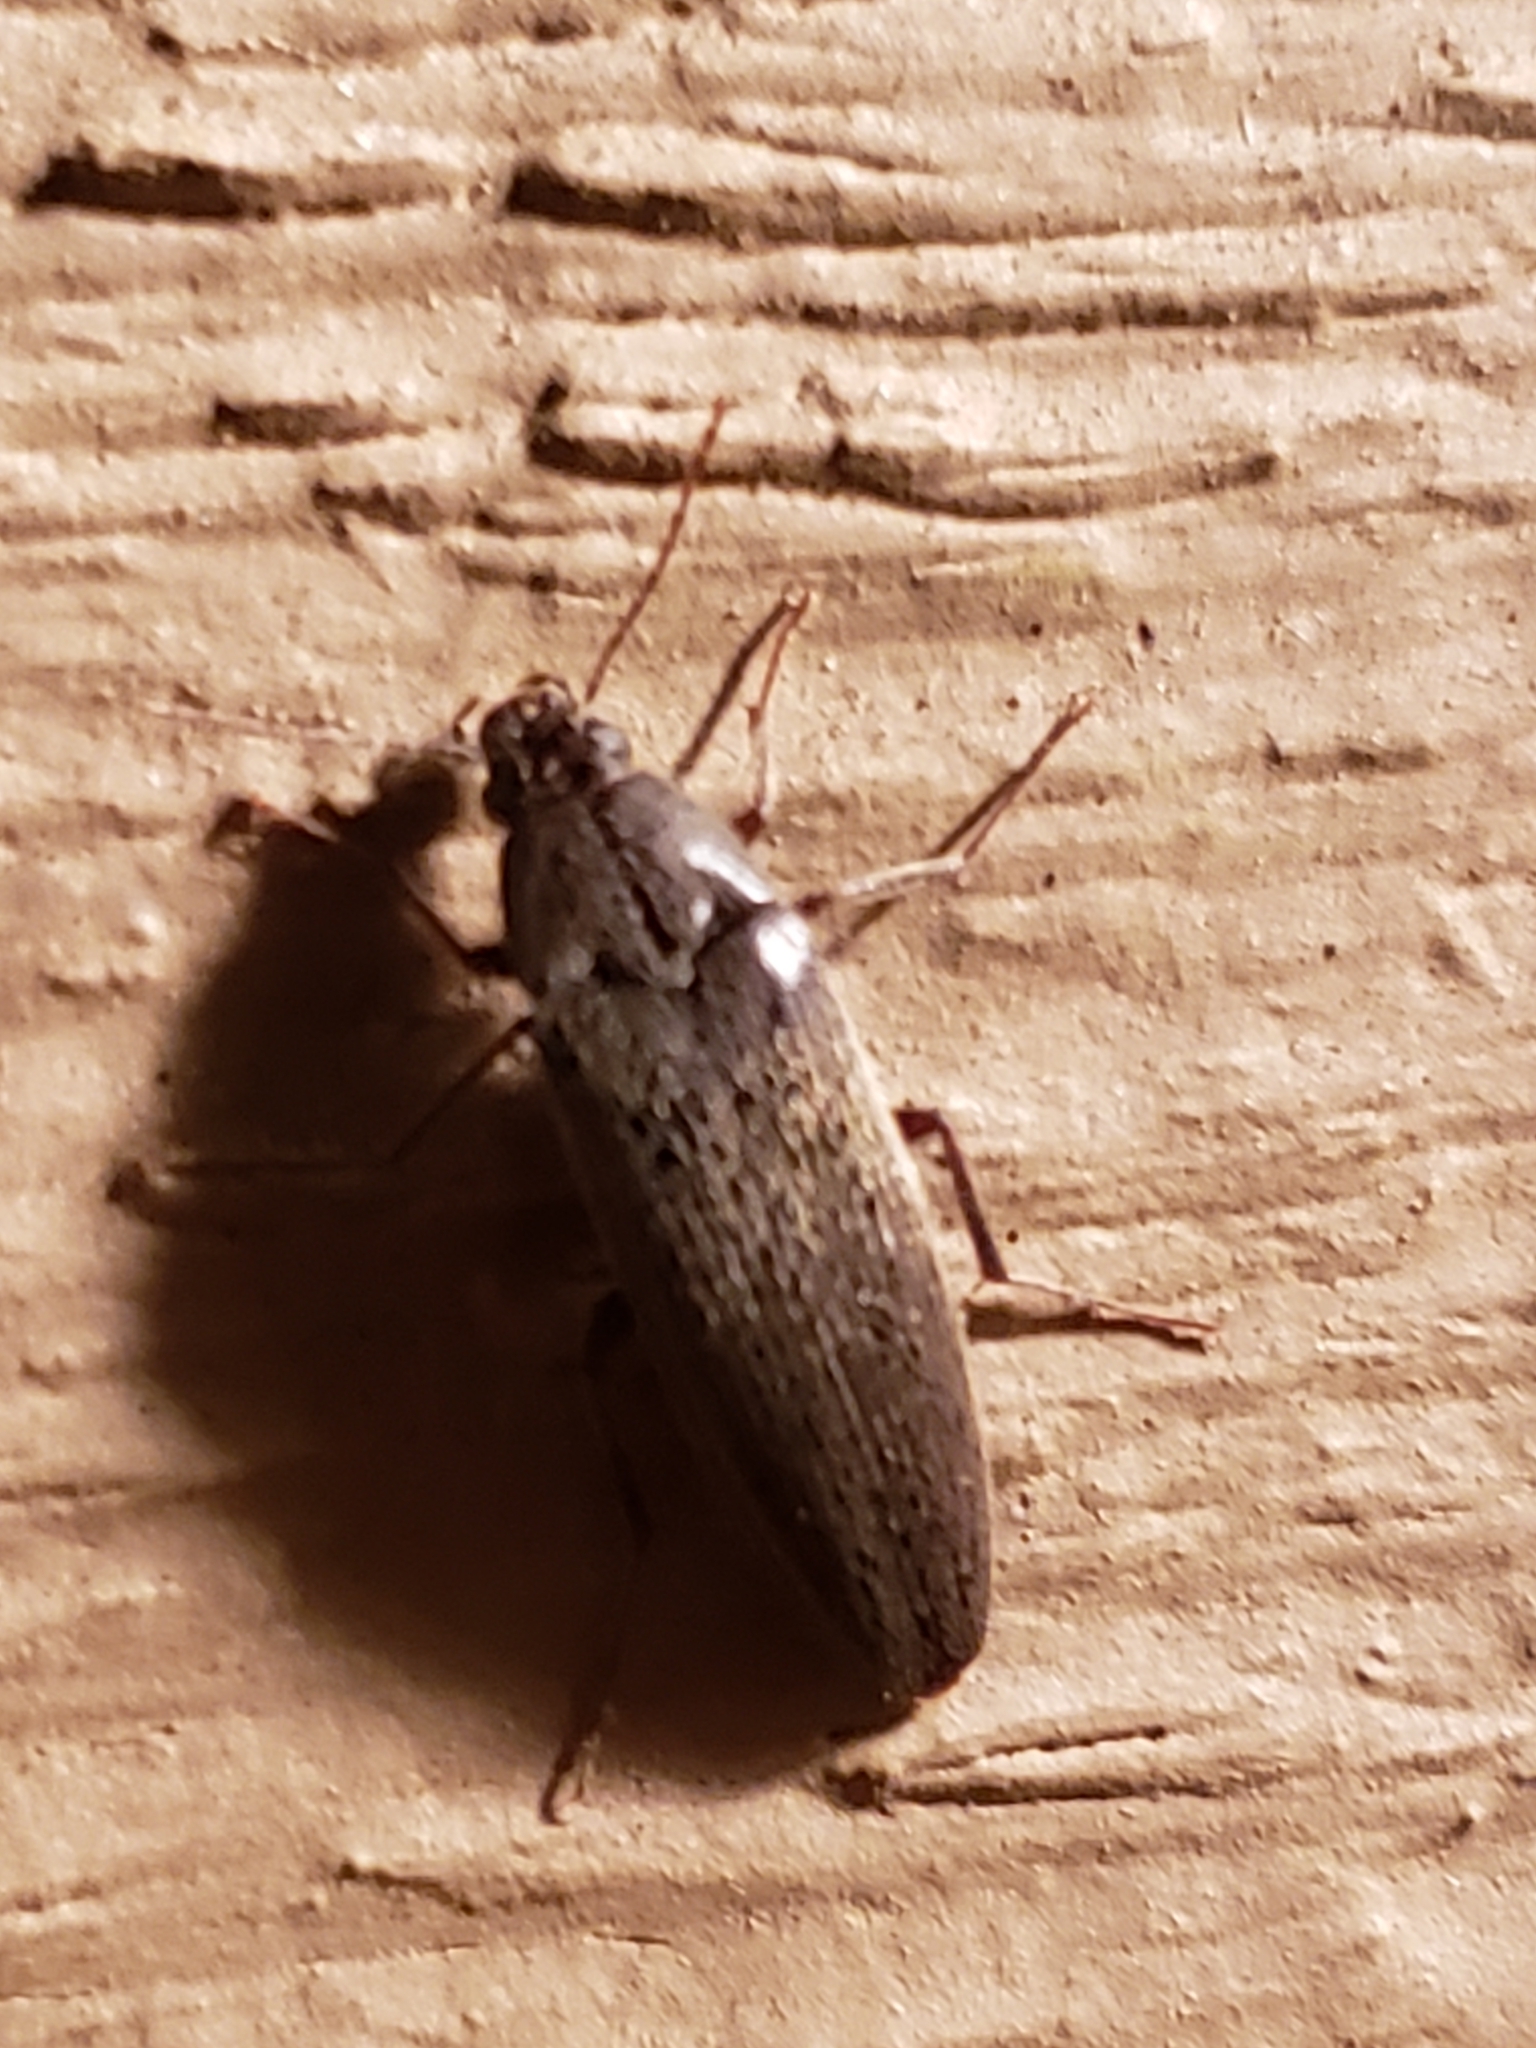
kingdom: Animalia
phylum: Arthropoda
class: Insecta
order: Coleoptera
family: Synchroidae
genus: Synchroa
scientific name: Synchroa punctata
